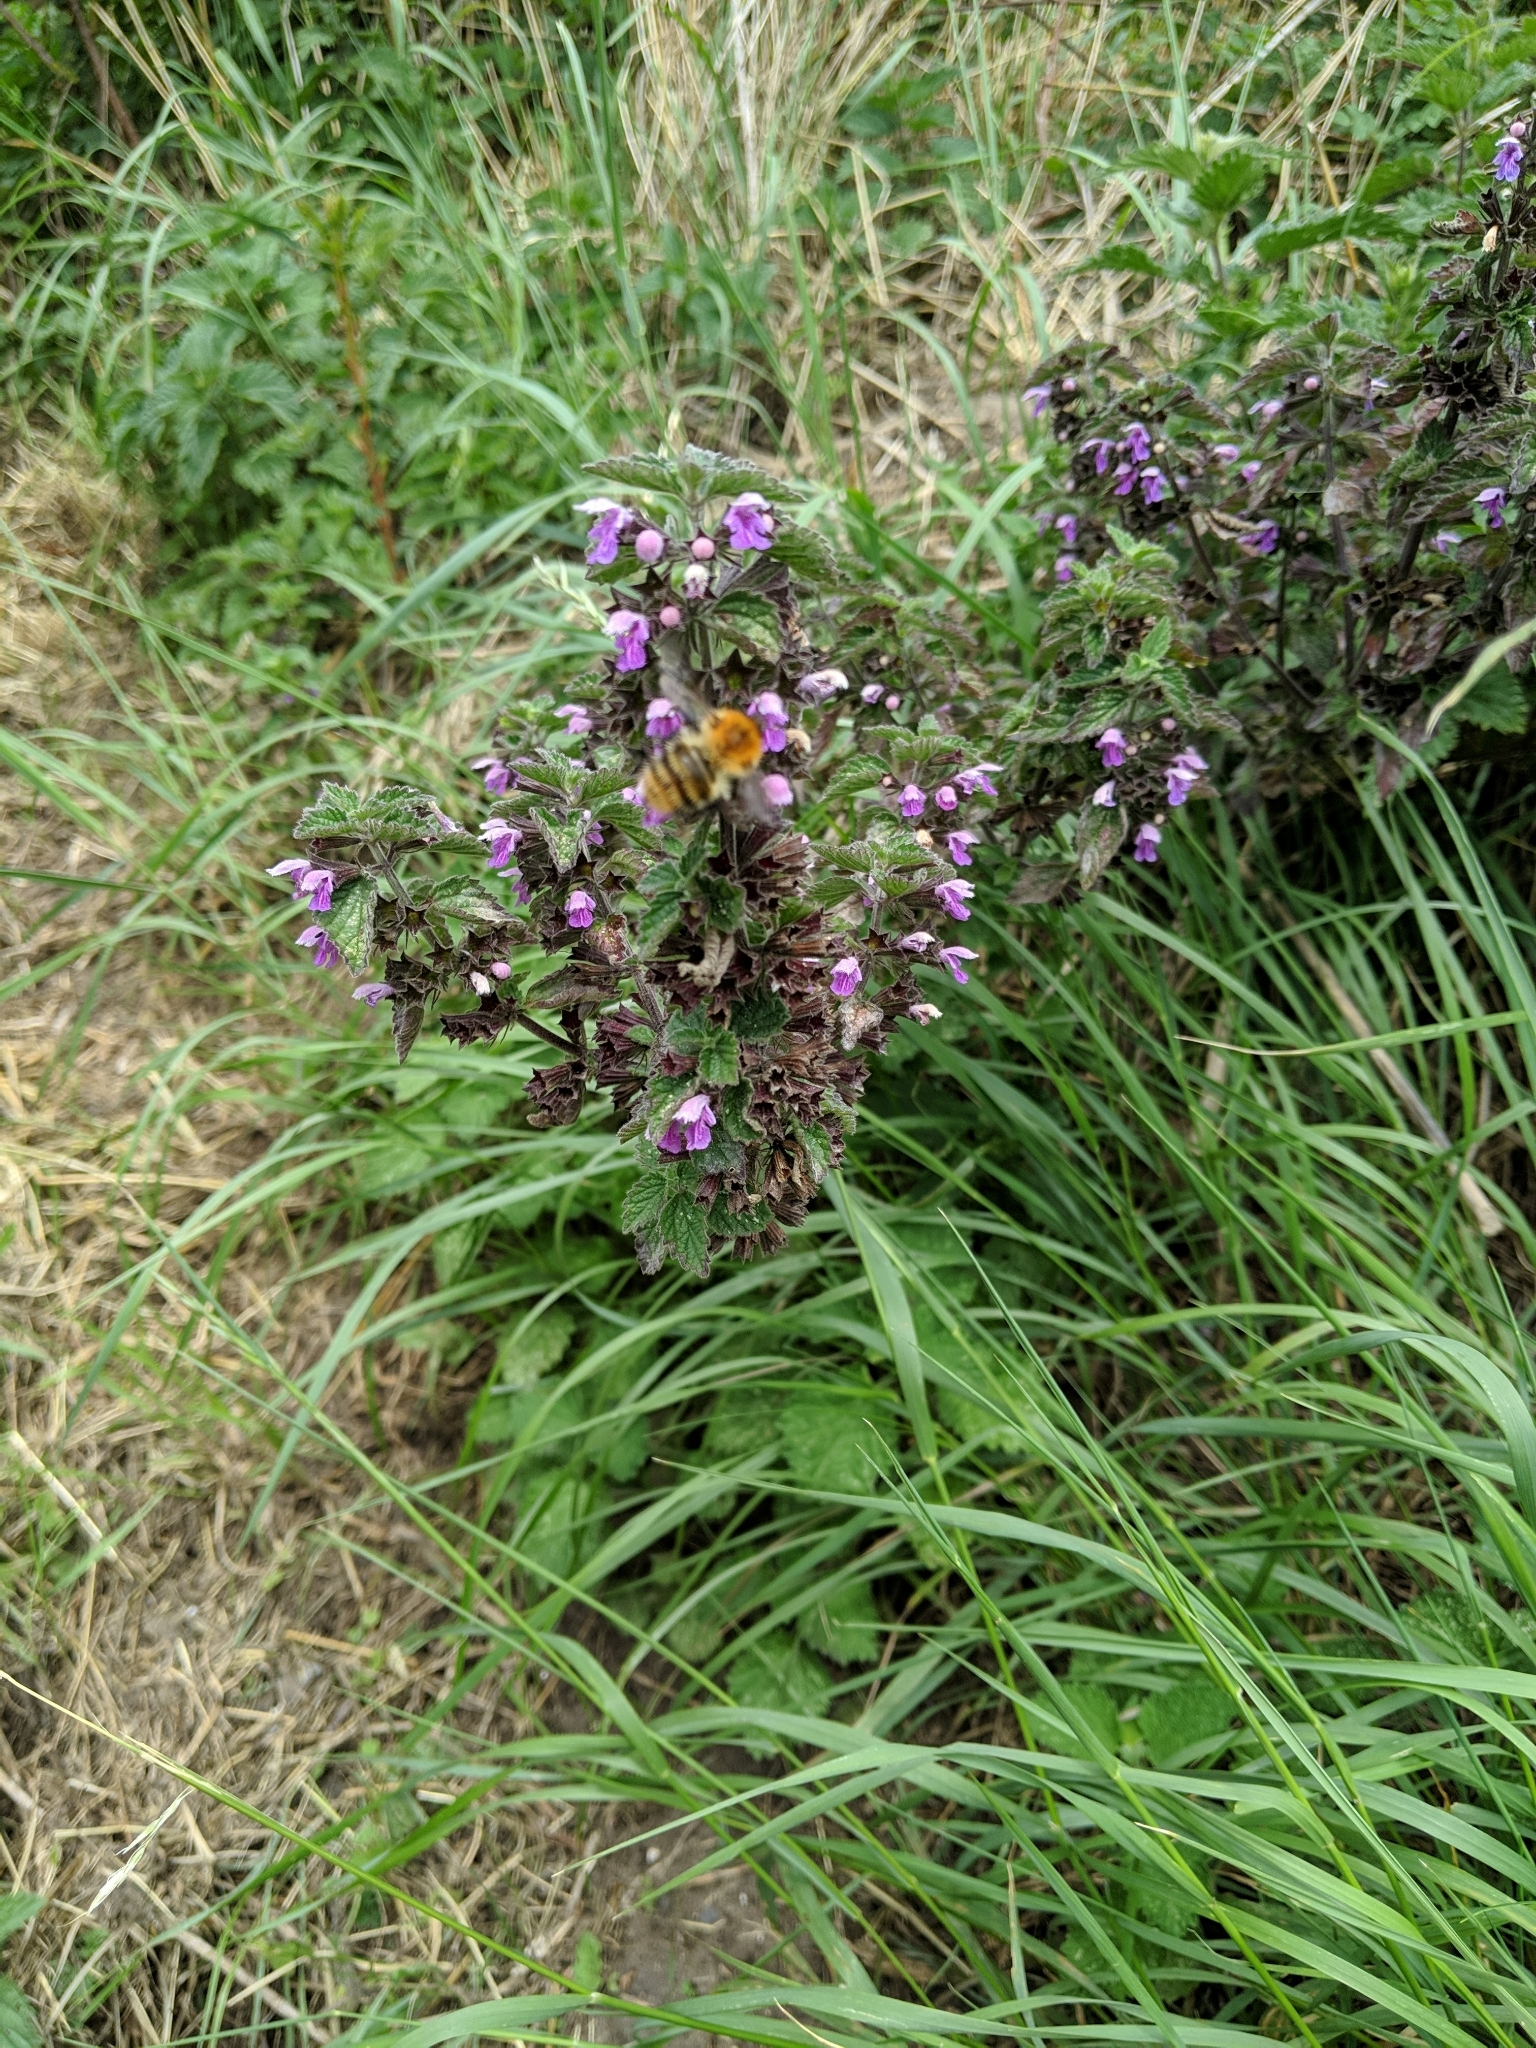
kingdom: Plantae
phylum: Tracheophyta
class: Magnoliopsida
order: Lamiales
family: Lamiaceae
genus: Ballota
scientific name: Ballota nigra
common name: Black horehound
